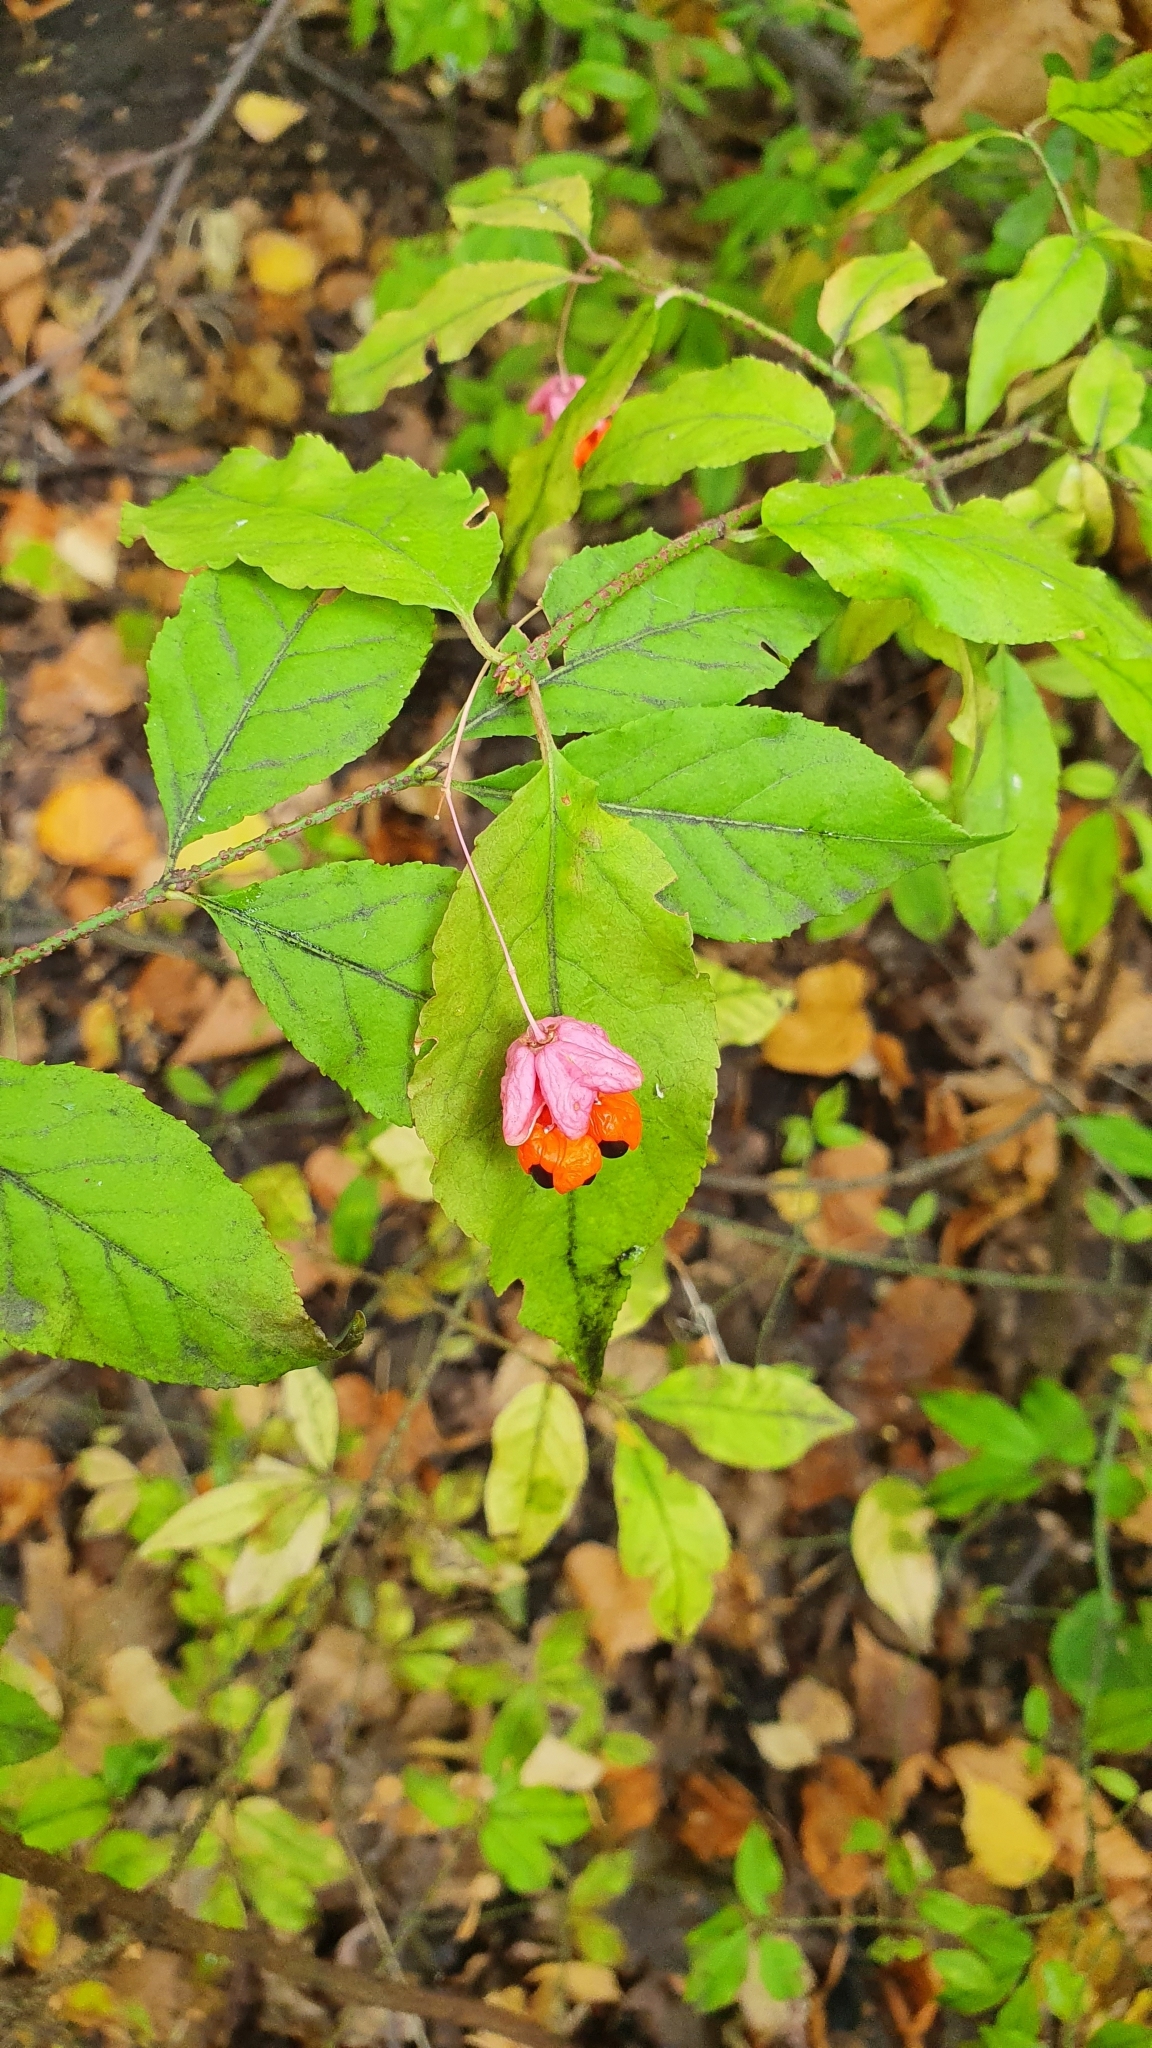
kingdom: Plantae
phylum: Tracheophyta
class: Magnoliopsida
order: Celastrales
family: Celastraceae
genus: Euonymus
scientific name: Euonymus verrucosus
